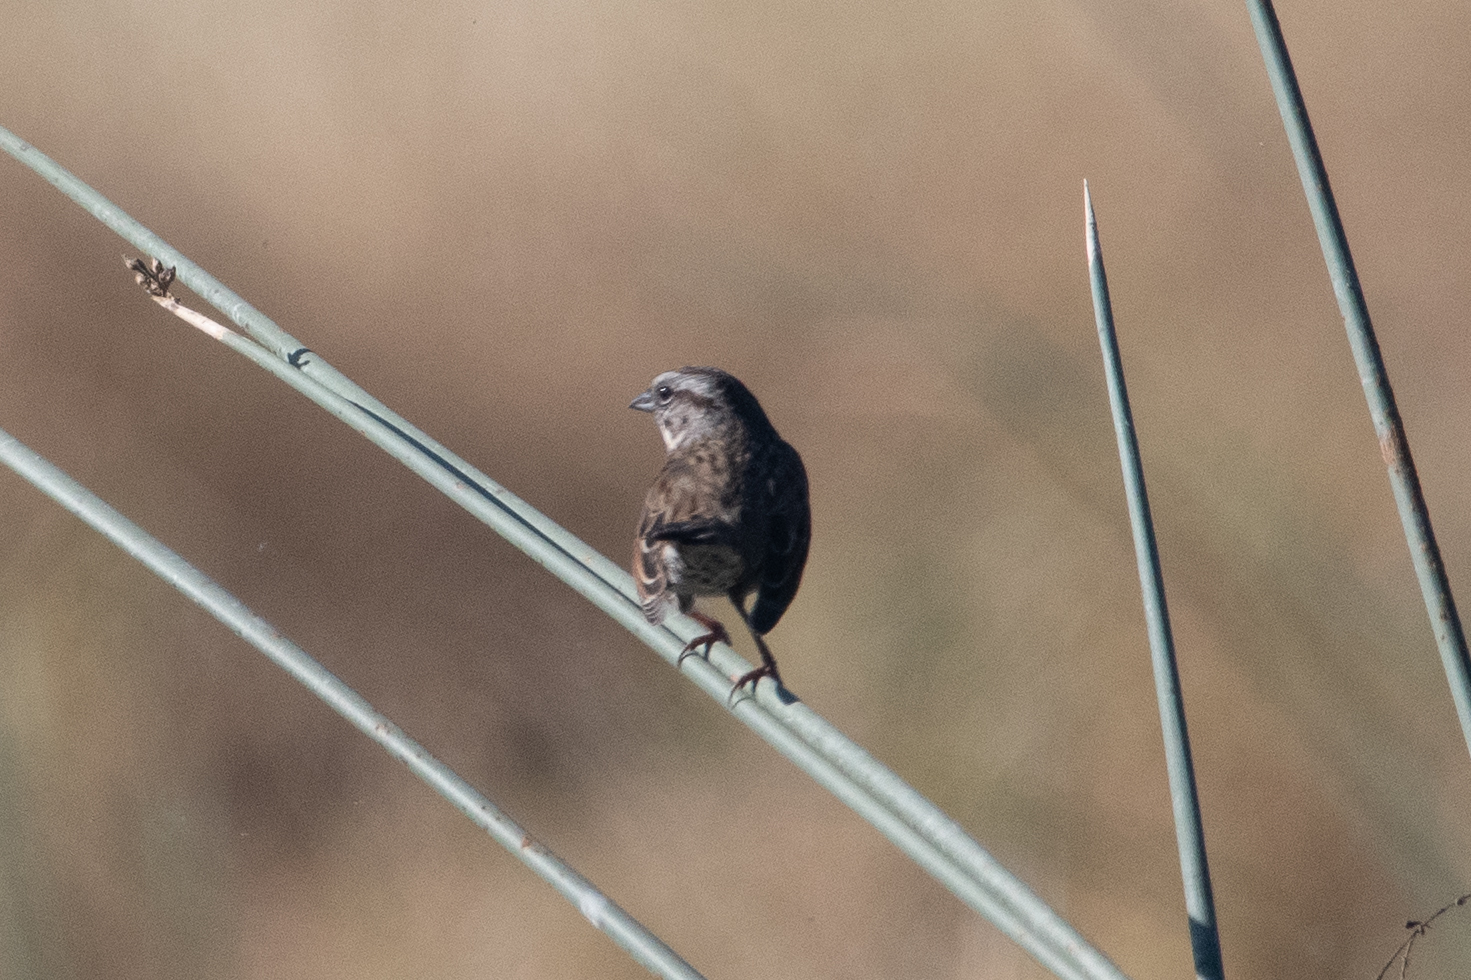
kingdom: Animalia
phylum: Chordata
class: Aves
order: Passeriformes
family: Passerellidae
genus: Melospiza
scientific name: Melospiza melodia
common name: Song sparrow
